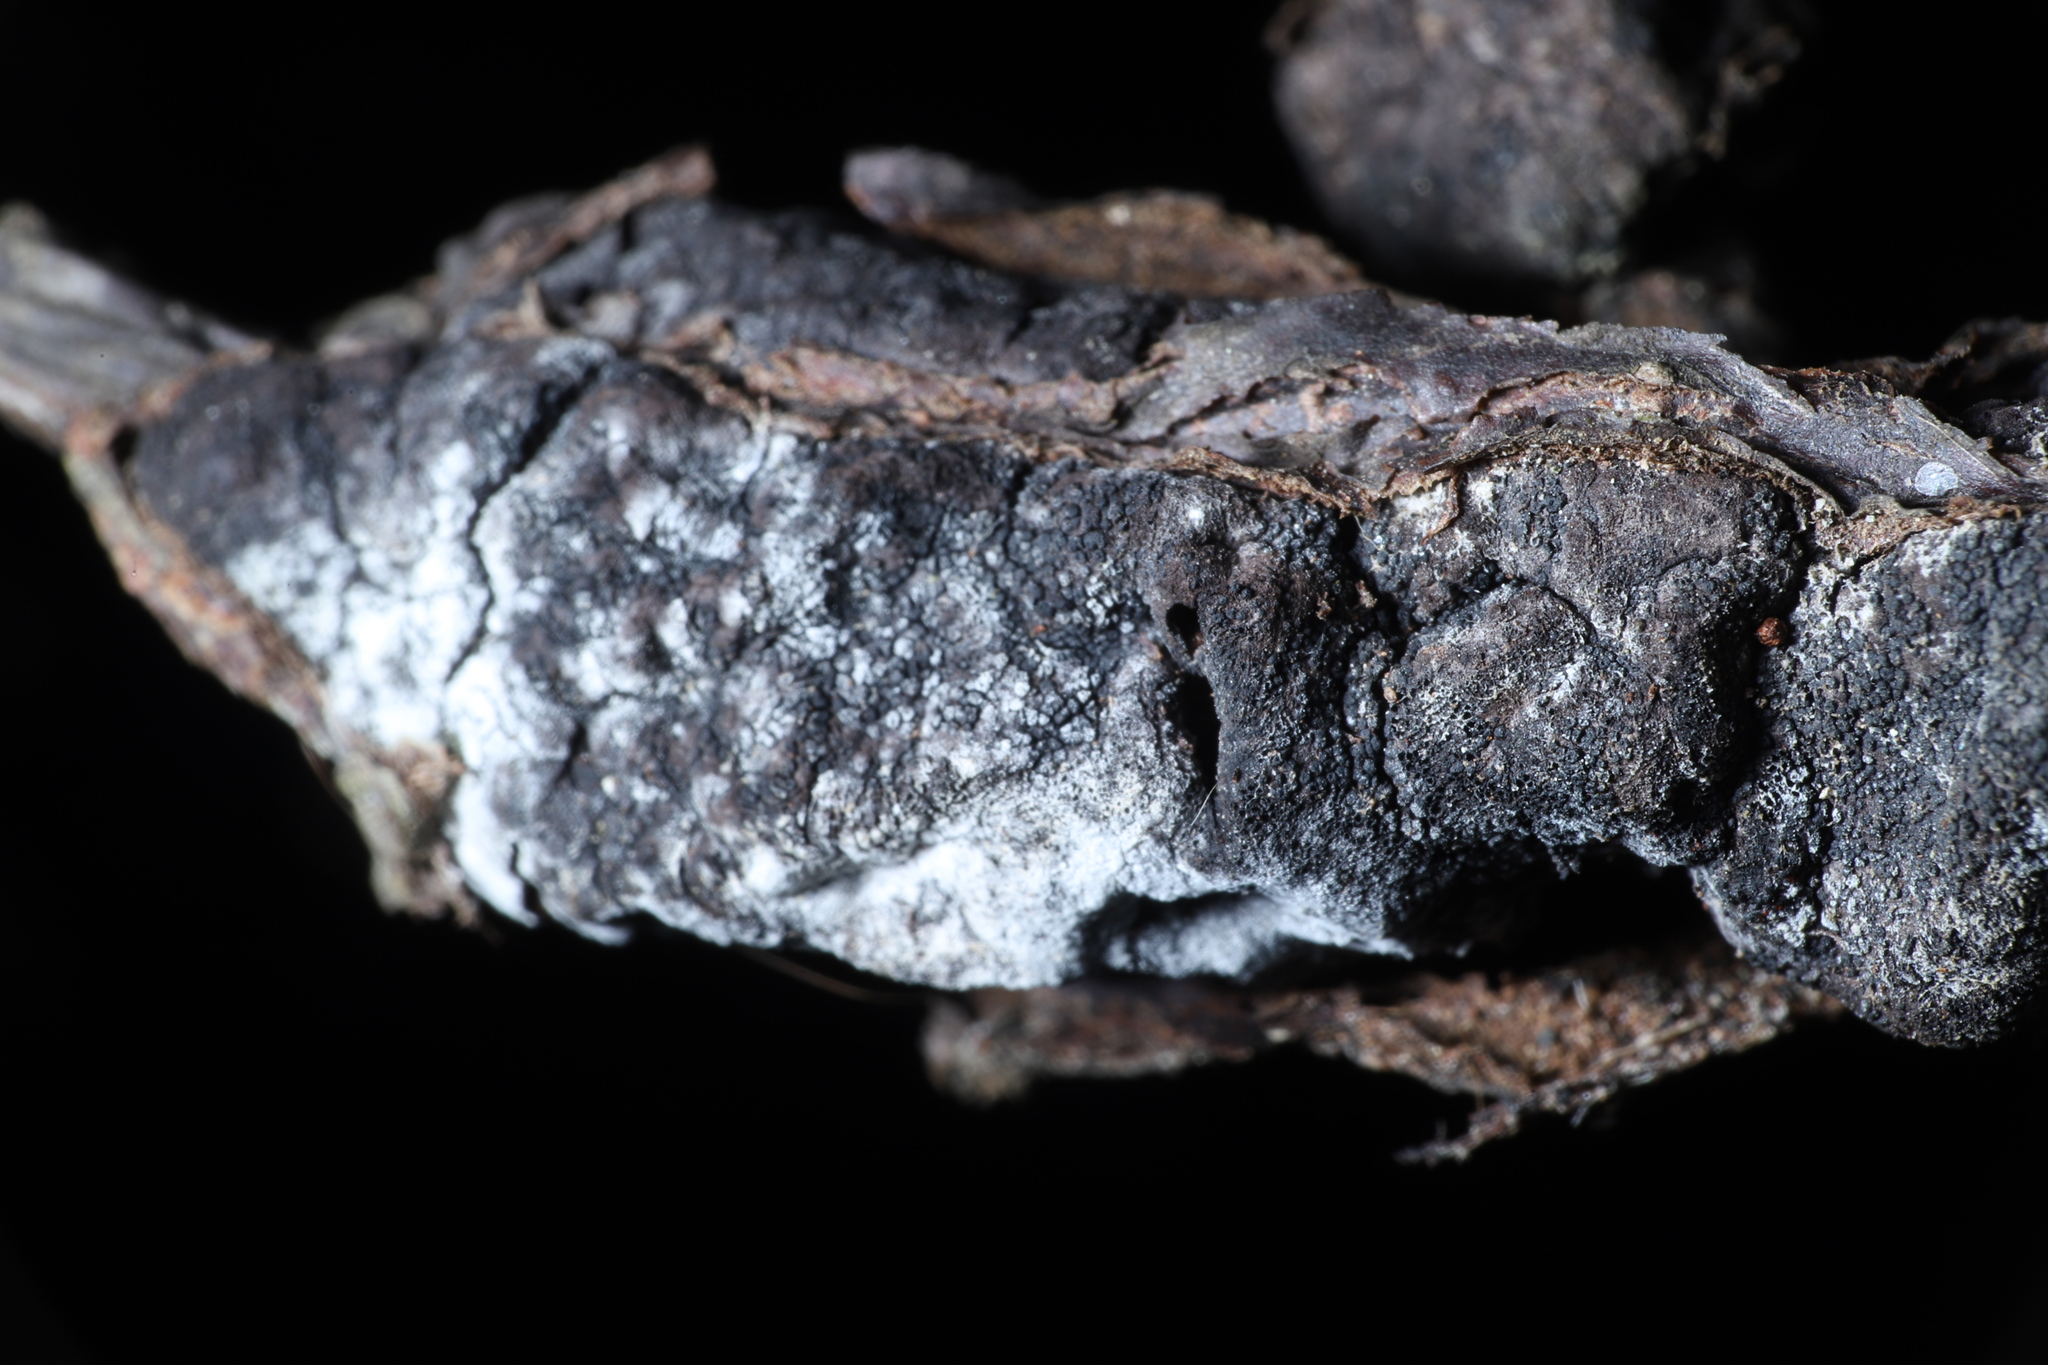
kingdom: Fungi
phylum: Ascomycota
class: Sordariomycetes
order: Hypocreales
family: Myrotheciomycetaceae
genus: Trichothecium
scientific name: Trichothecium roseum
